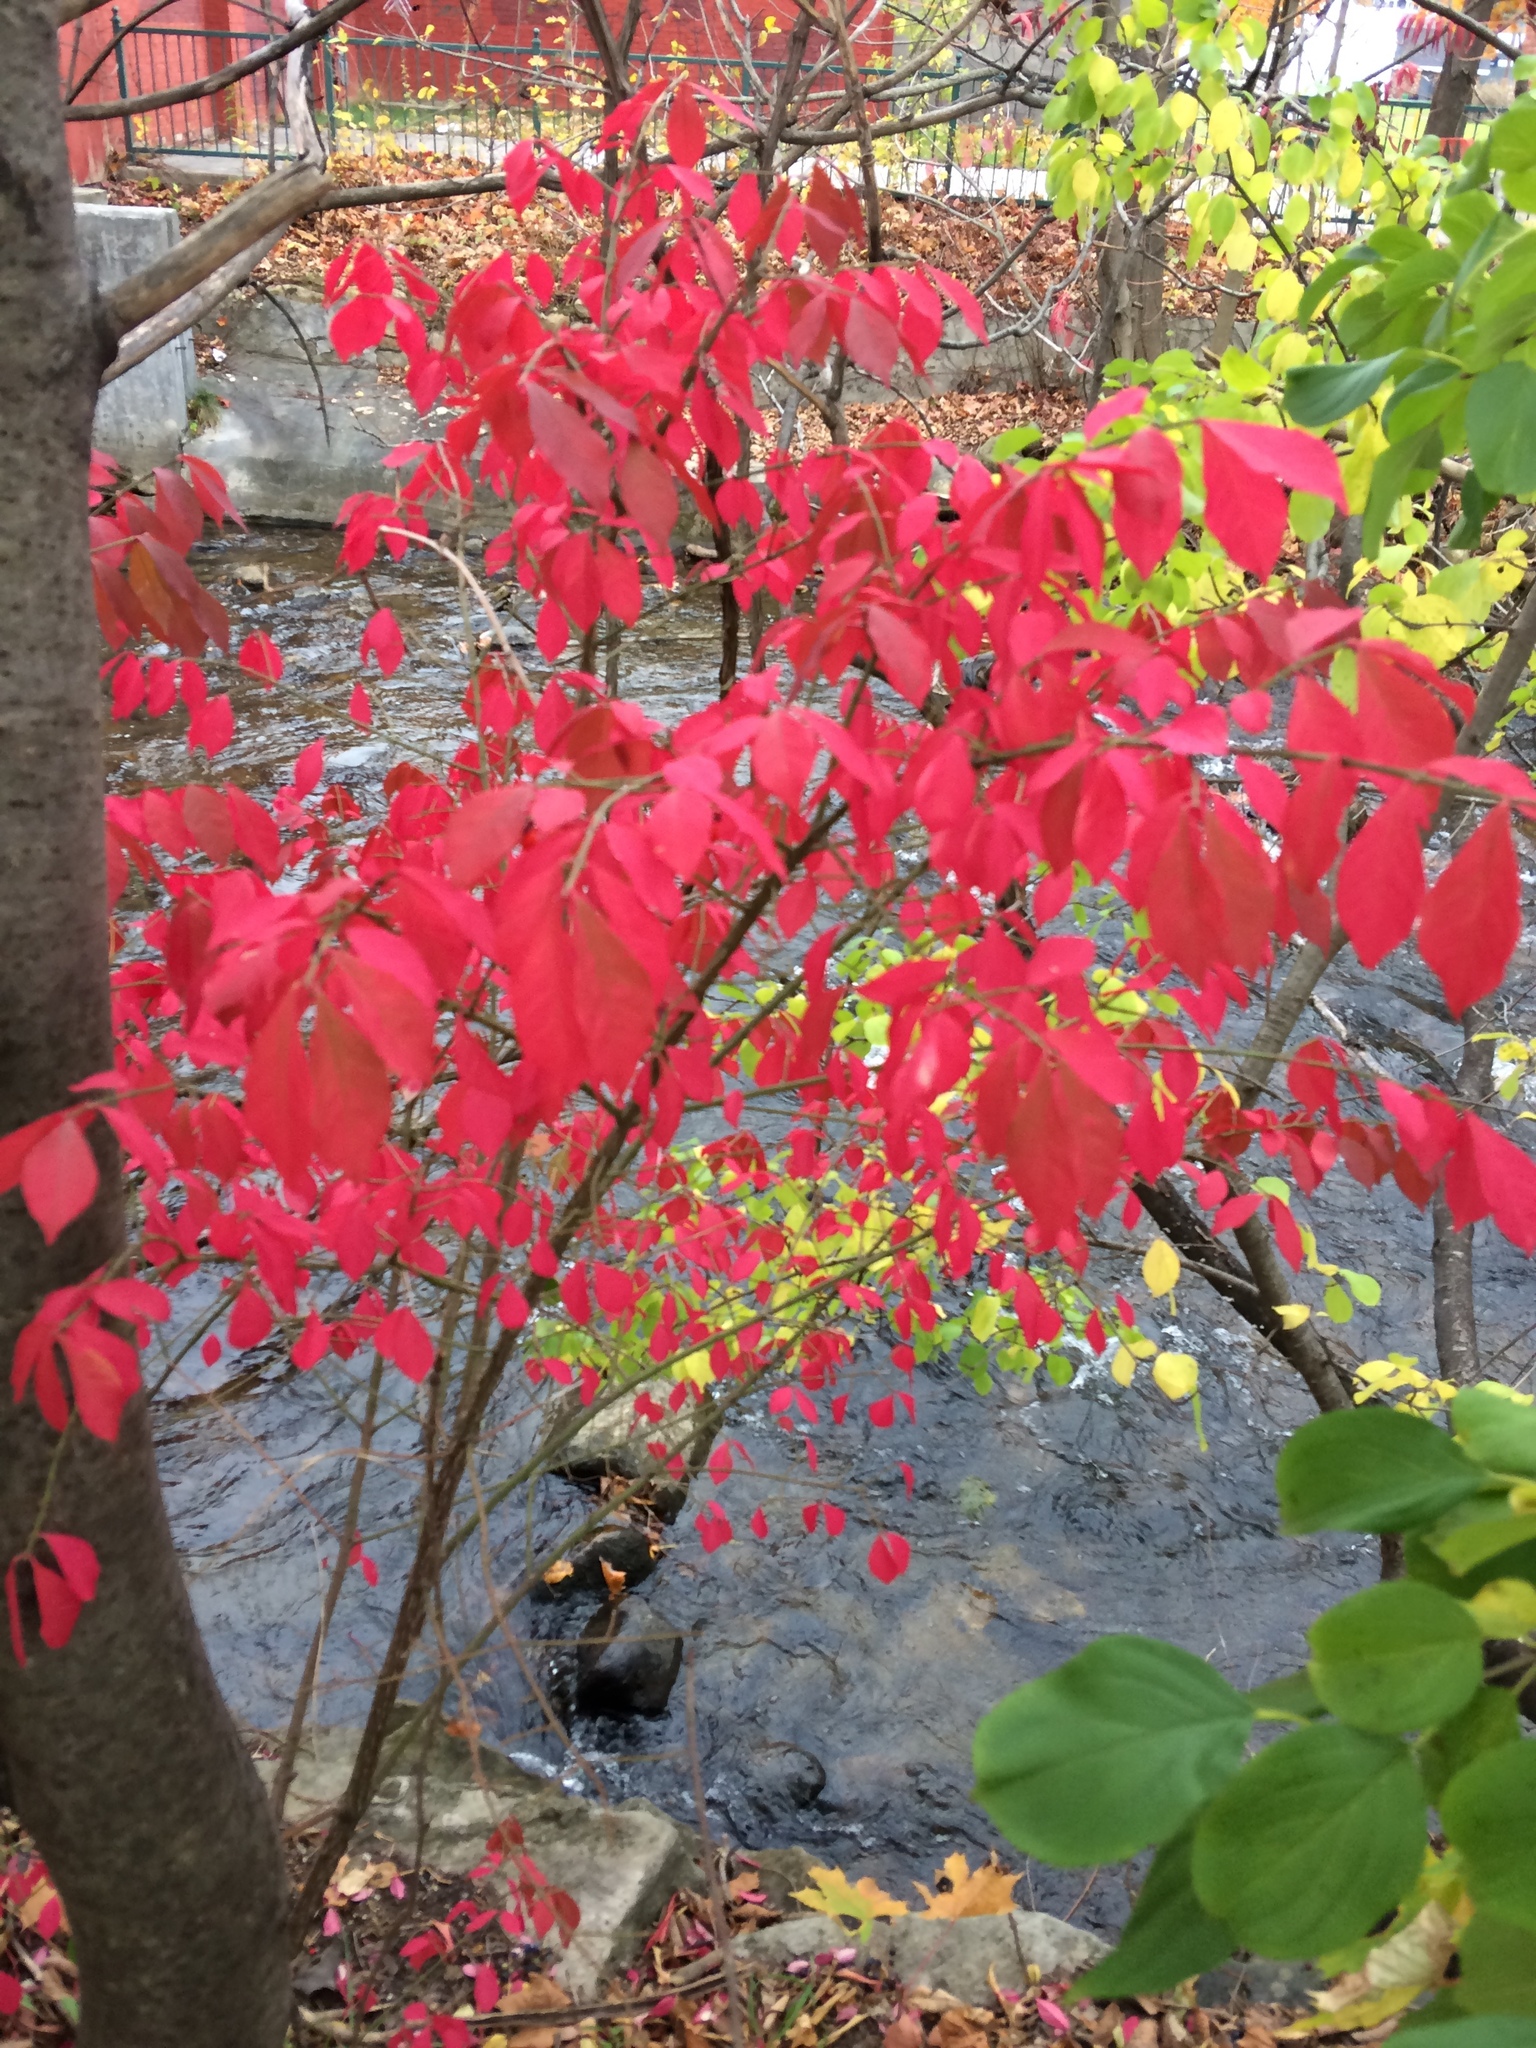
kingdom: Plantae
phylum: Tracheophyta
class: Magnoliopsida
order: Celastrales
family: Celastraceae
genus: Euonymus
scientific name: Euonymus alatus
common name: Winged euonymus
